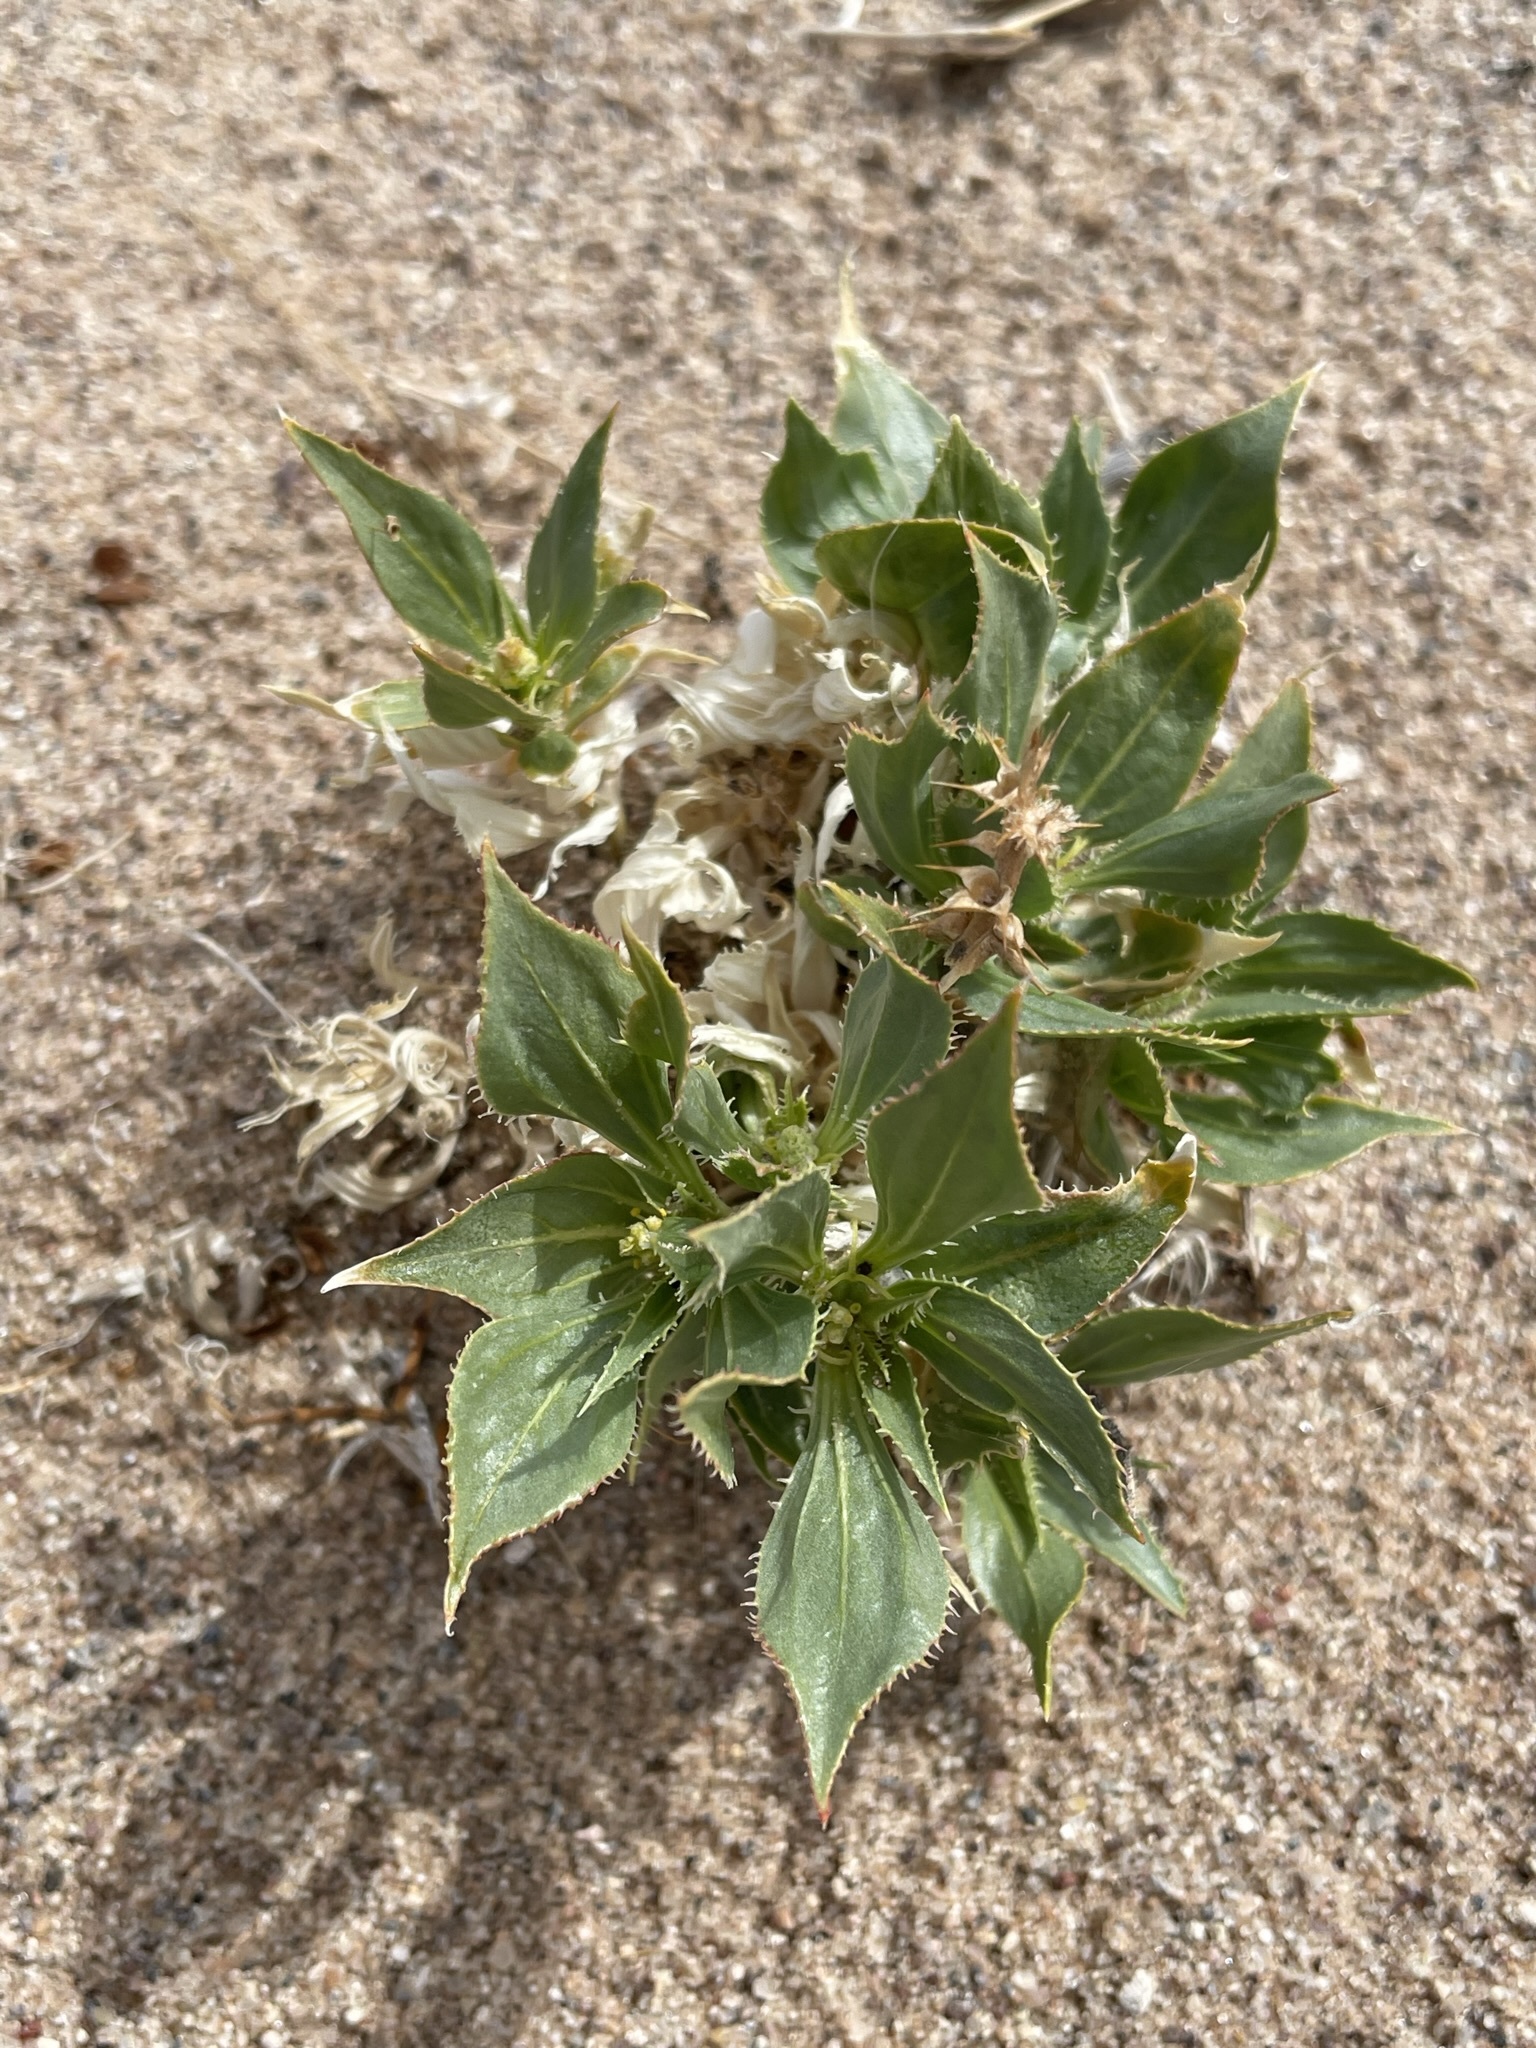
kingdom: Plantae
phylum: Tracheophyta
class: Magnoliopsida
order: Malpighiales
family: Euphorbiaceae
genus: Stillingia
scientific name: Stillingia spinulosa
